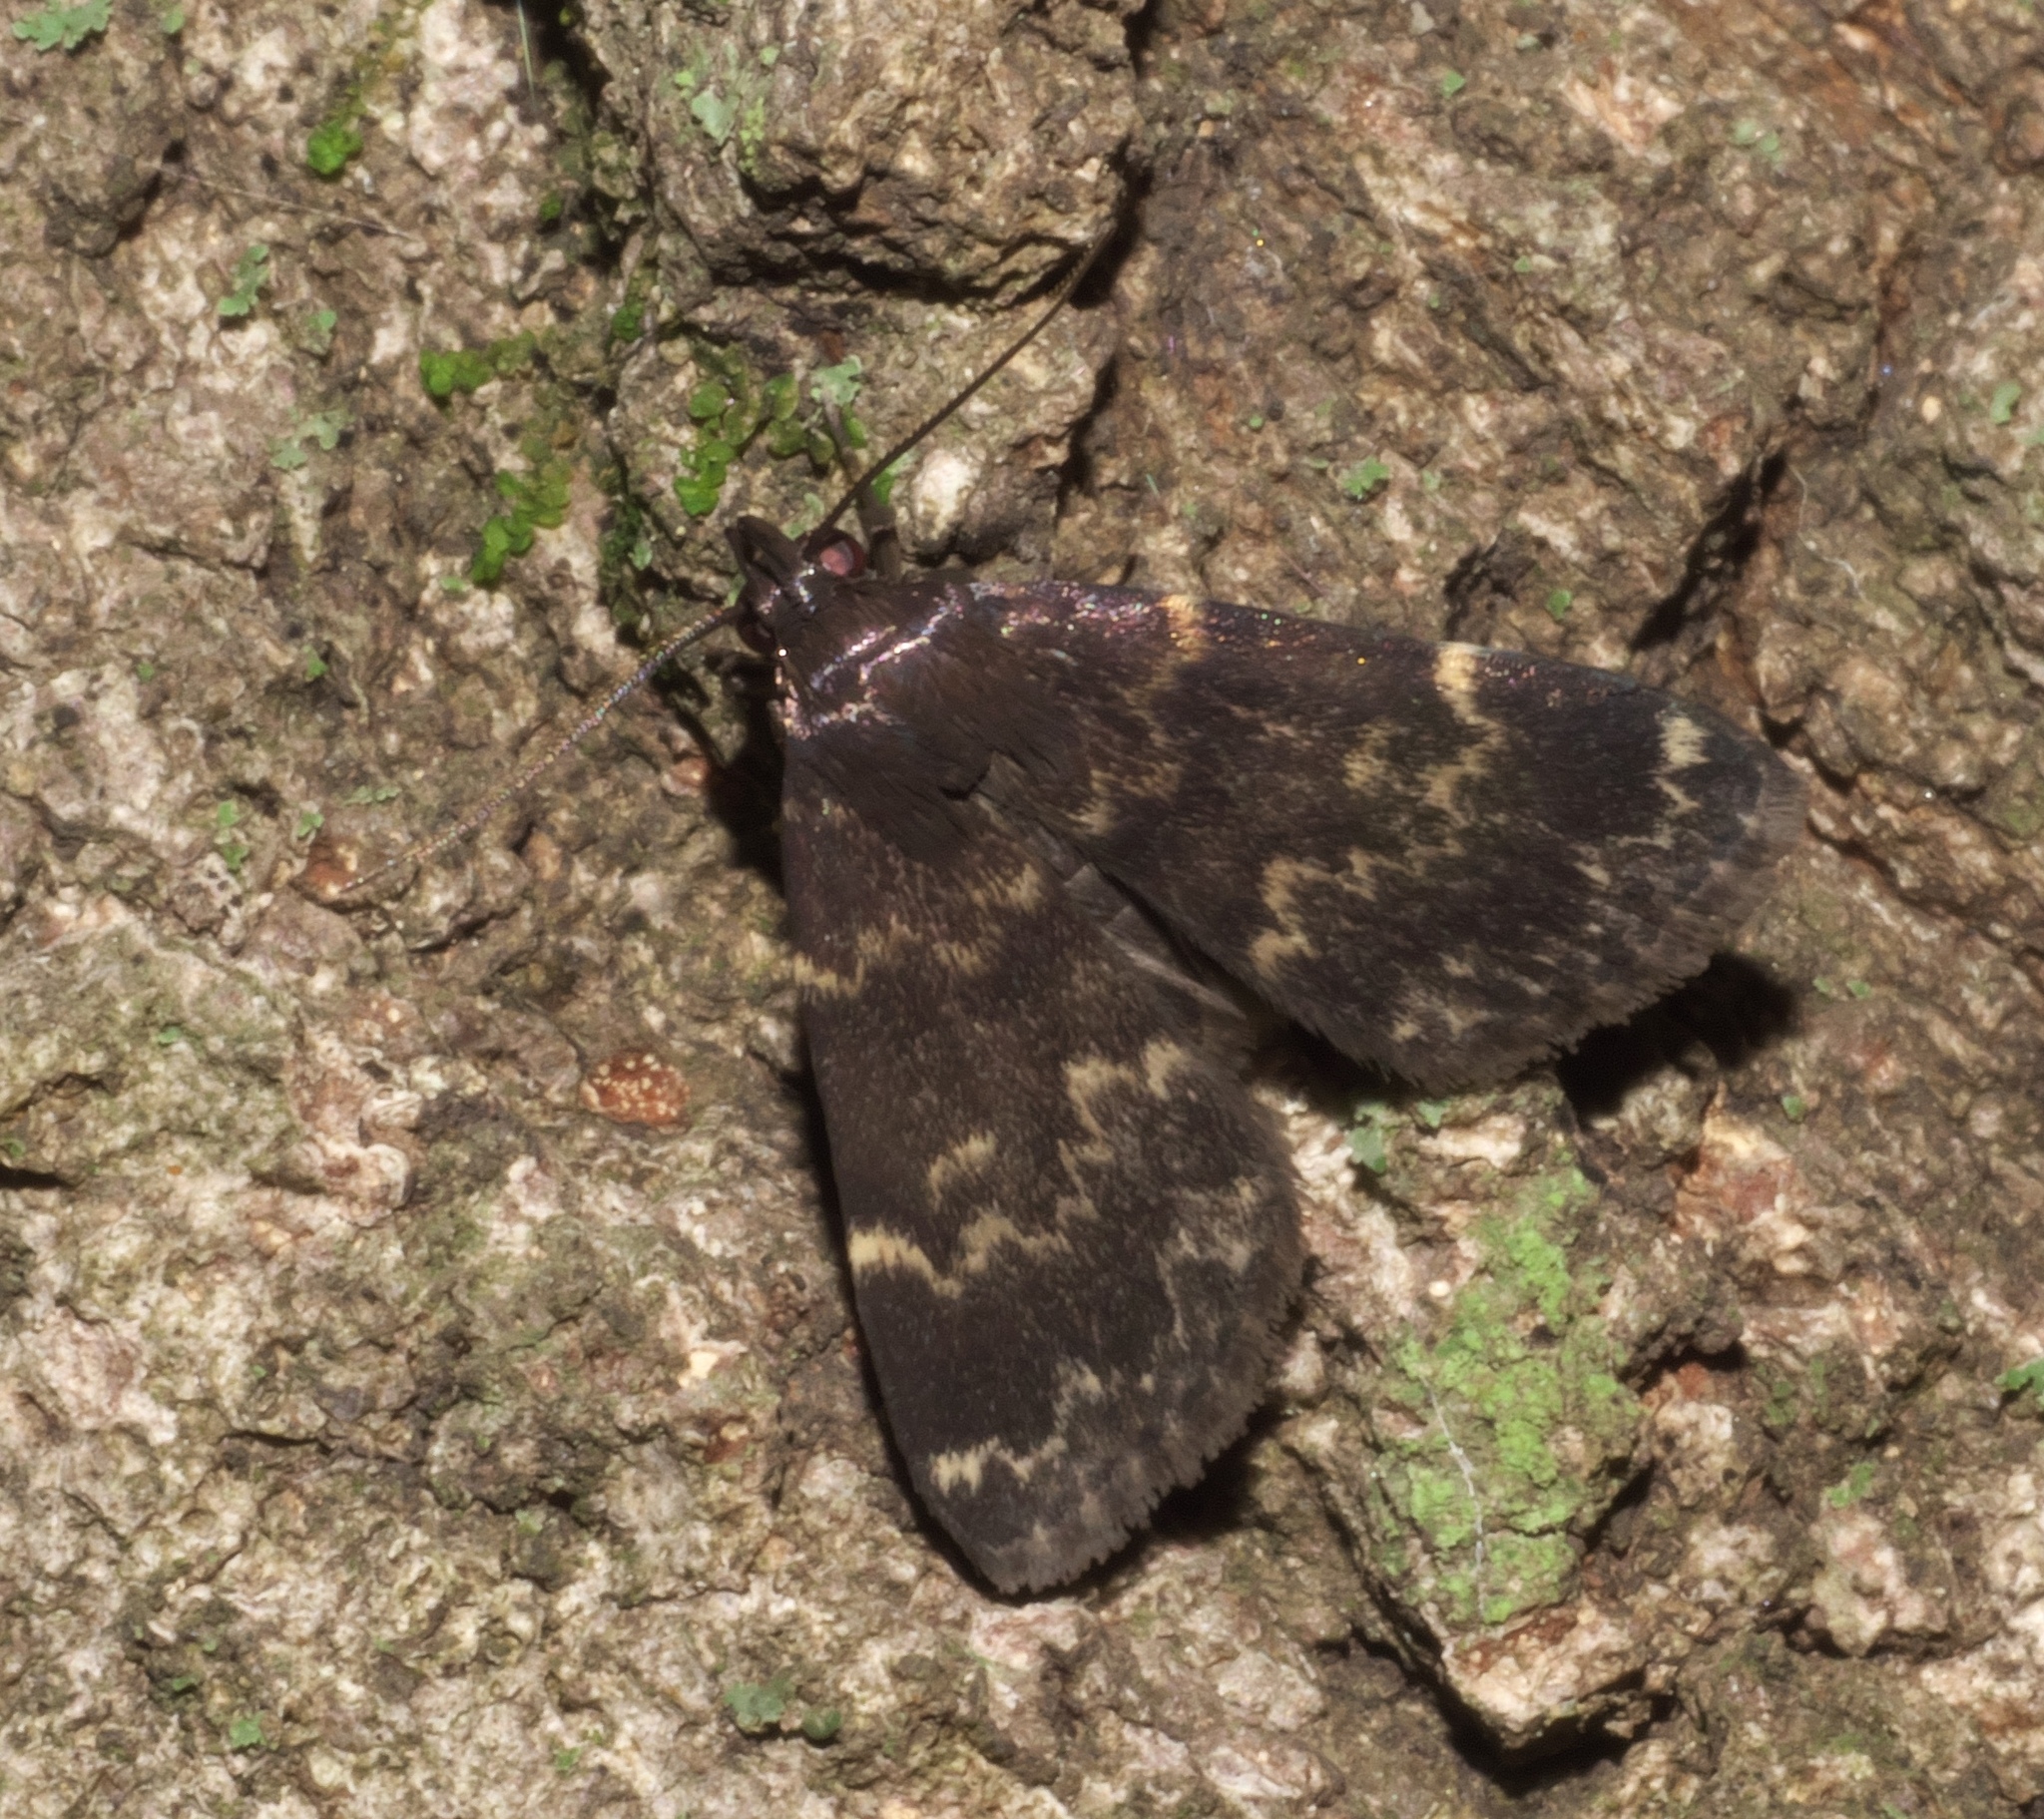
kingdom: Animalia
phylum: Arthropoda
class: Insecta
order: Lepidoptera
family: Erebidae
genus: Idia
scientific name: Idia lubricalis
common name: Twin-striped tabby
